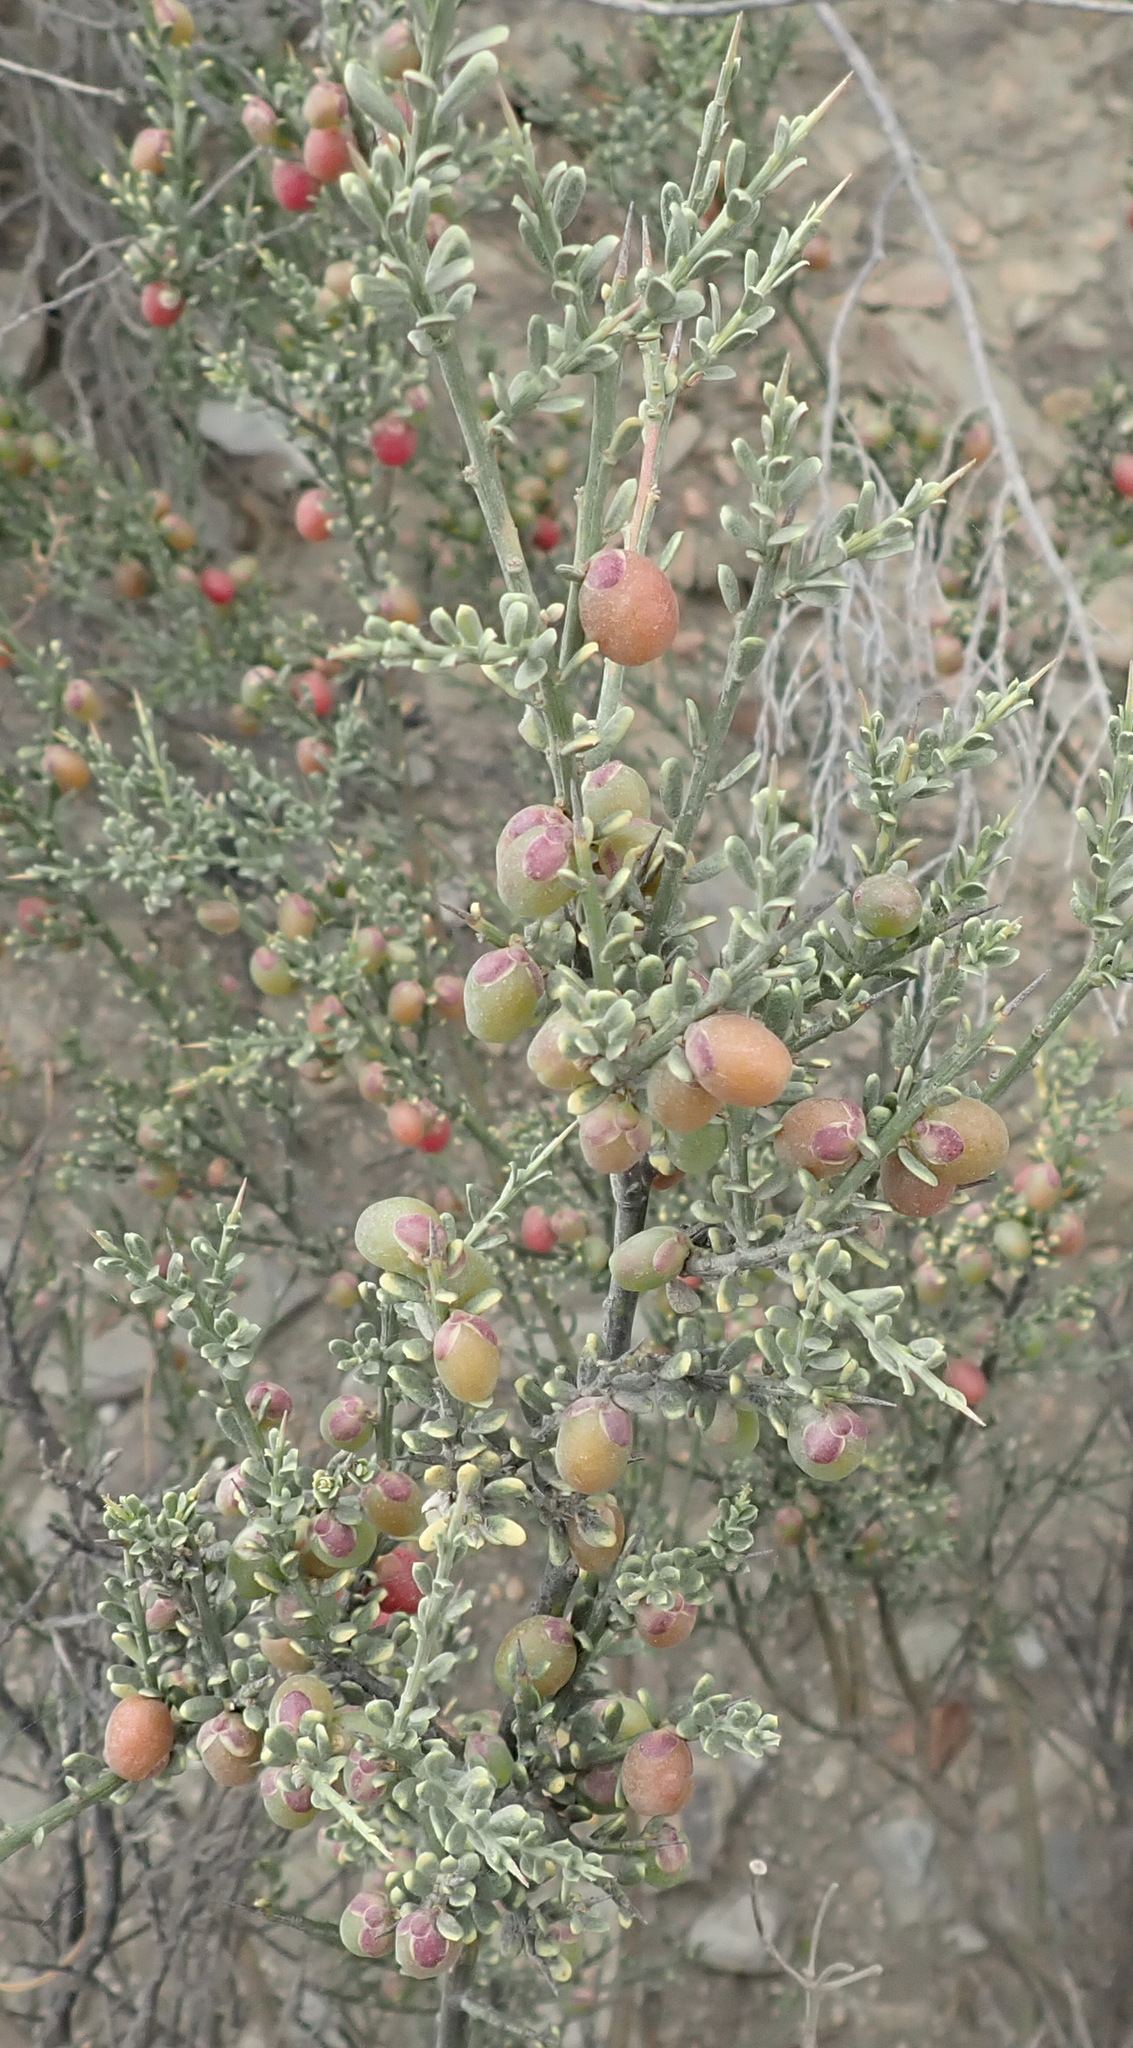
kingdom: Plantae
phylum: Tracheophyta
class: Magnoliopsida
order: Fabales
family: Polygalaceae
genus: Muraltia
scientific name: Muraltia spinosa
